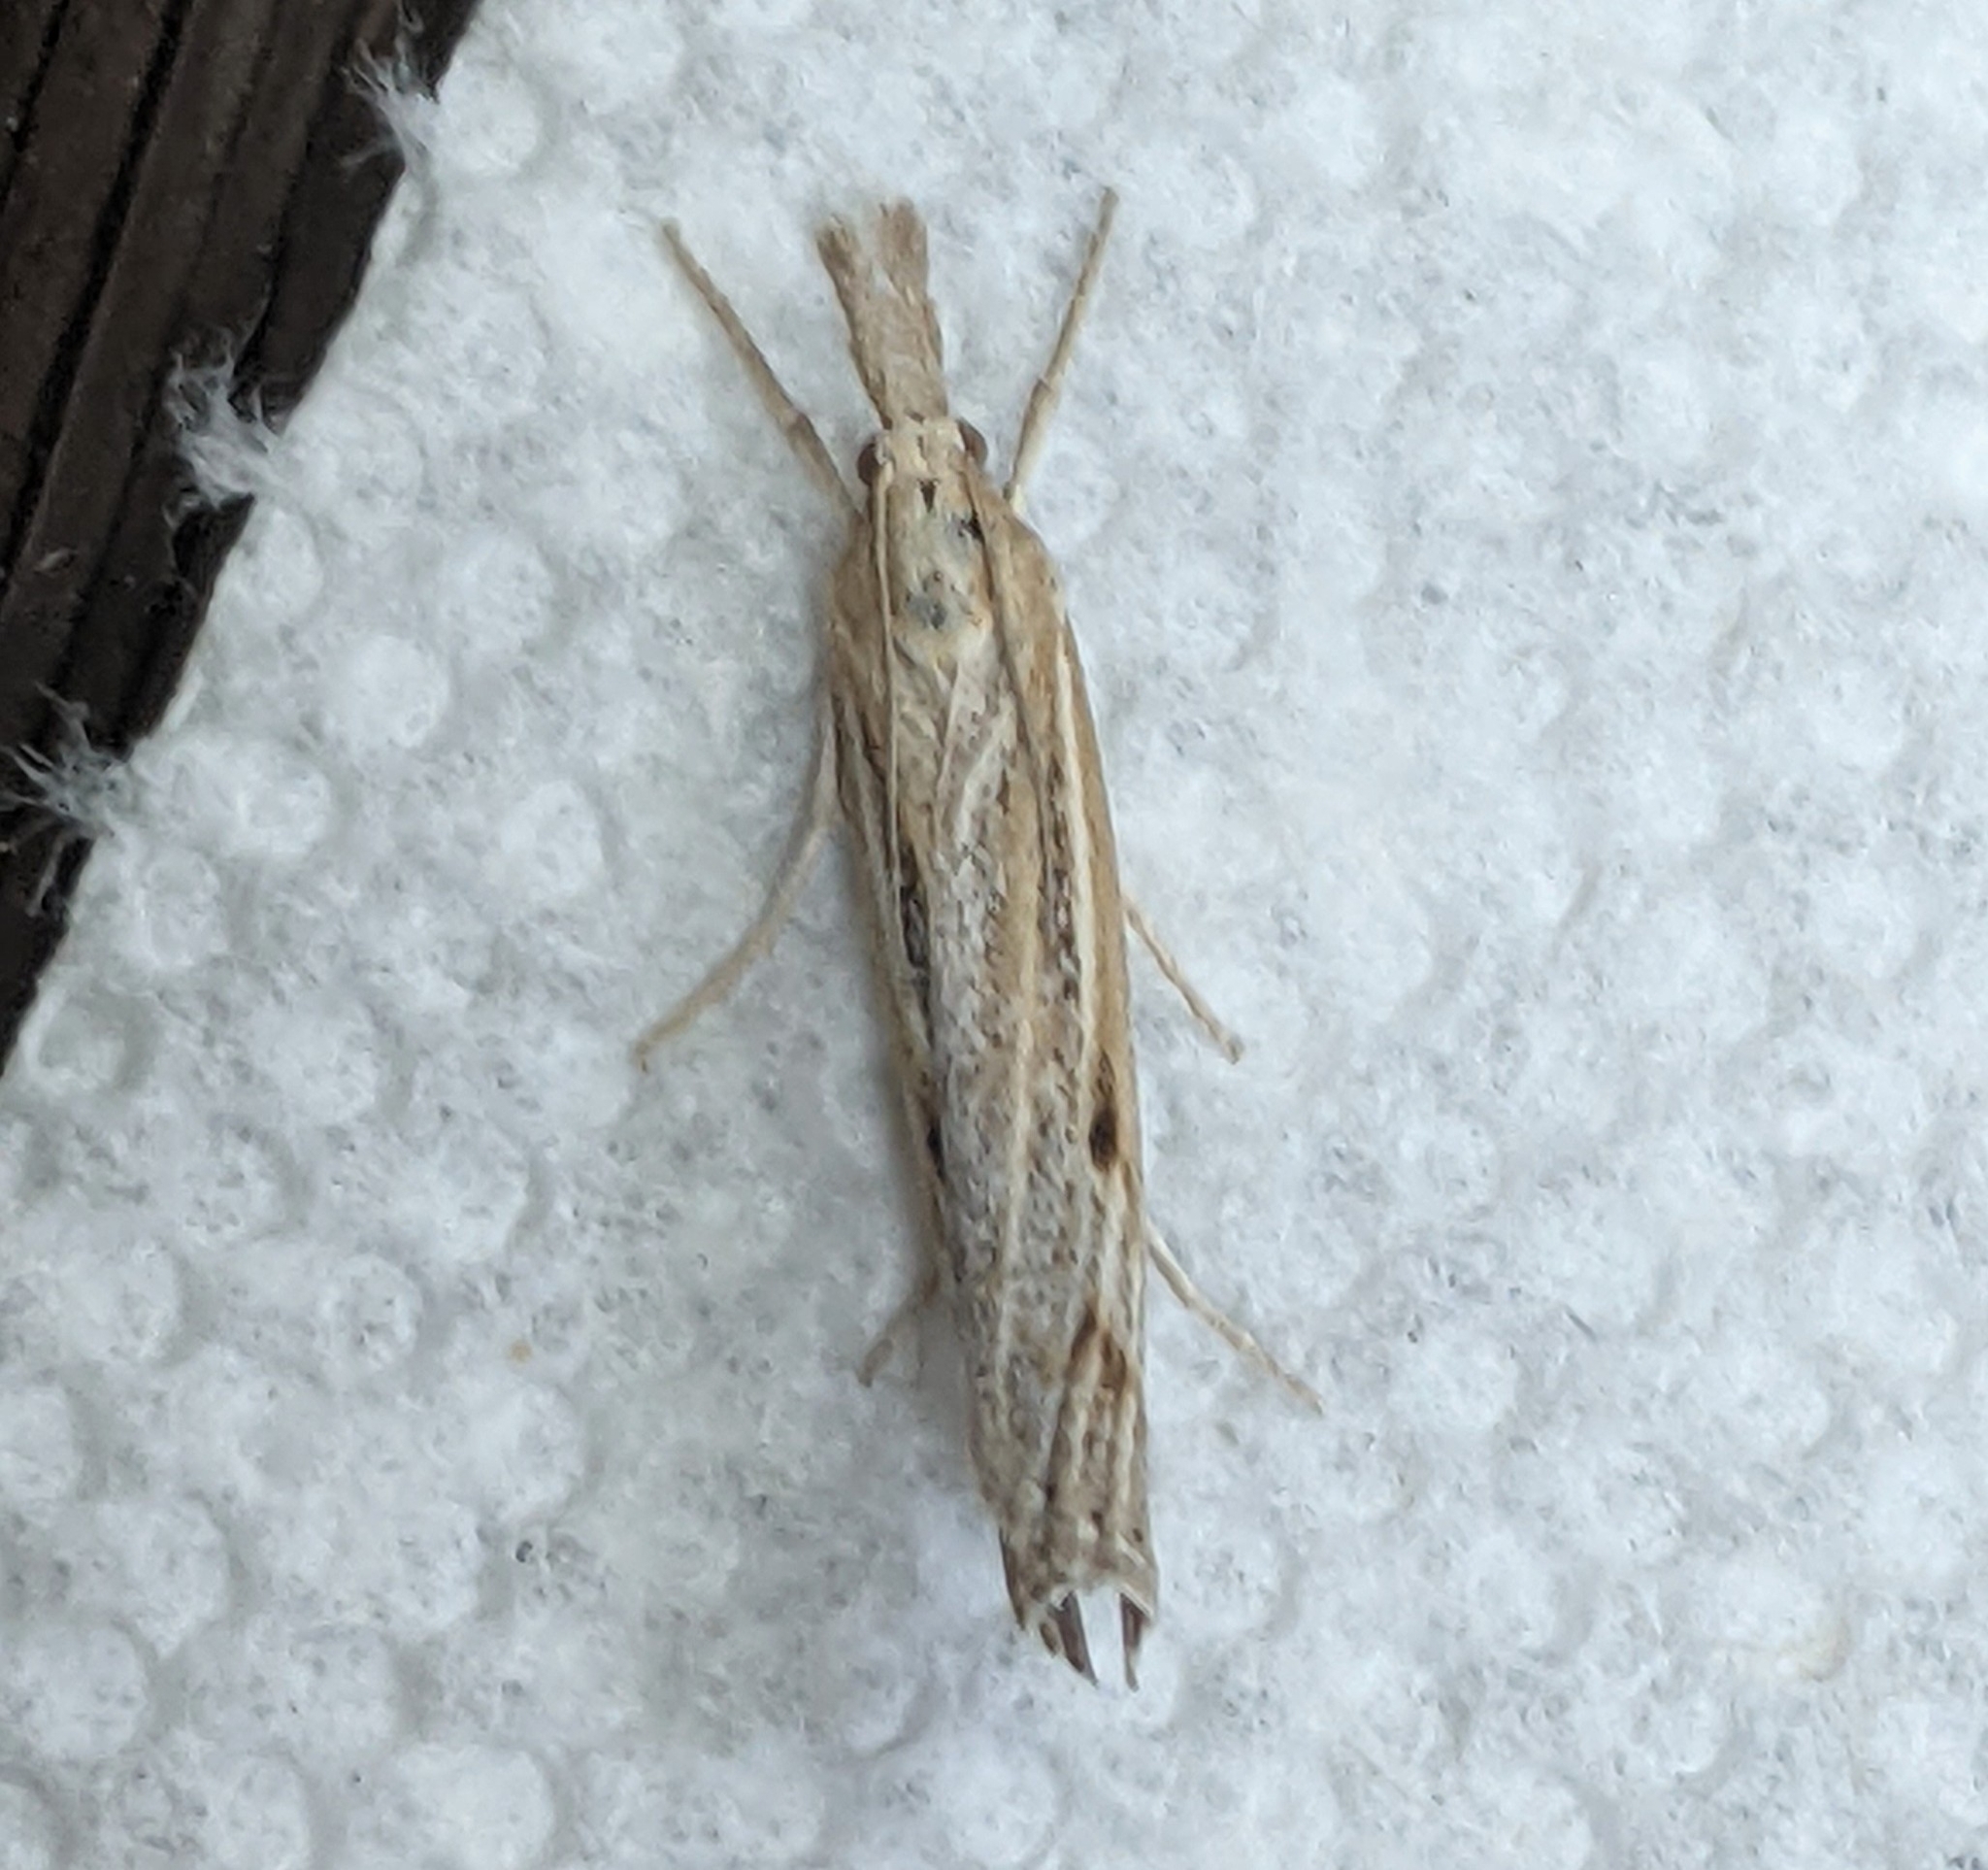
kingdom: Animalia
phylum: Arthropoda
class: Insecta
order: Lepidoptera
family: Crambidae
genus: Pediasia
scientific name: Pediasia trisecta
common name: Sod webworm moth
